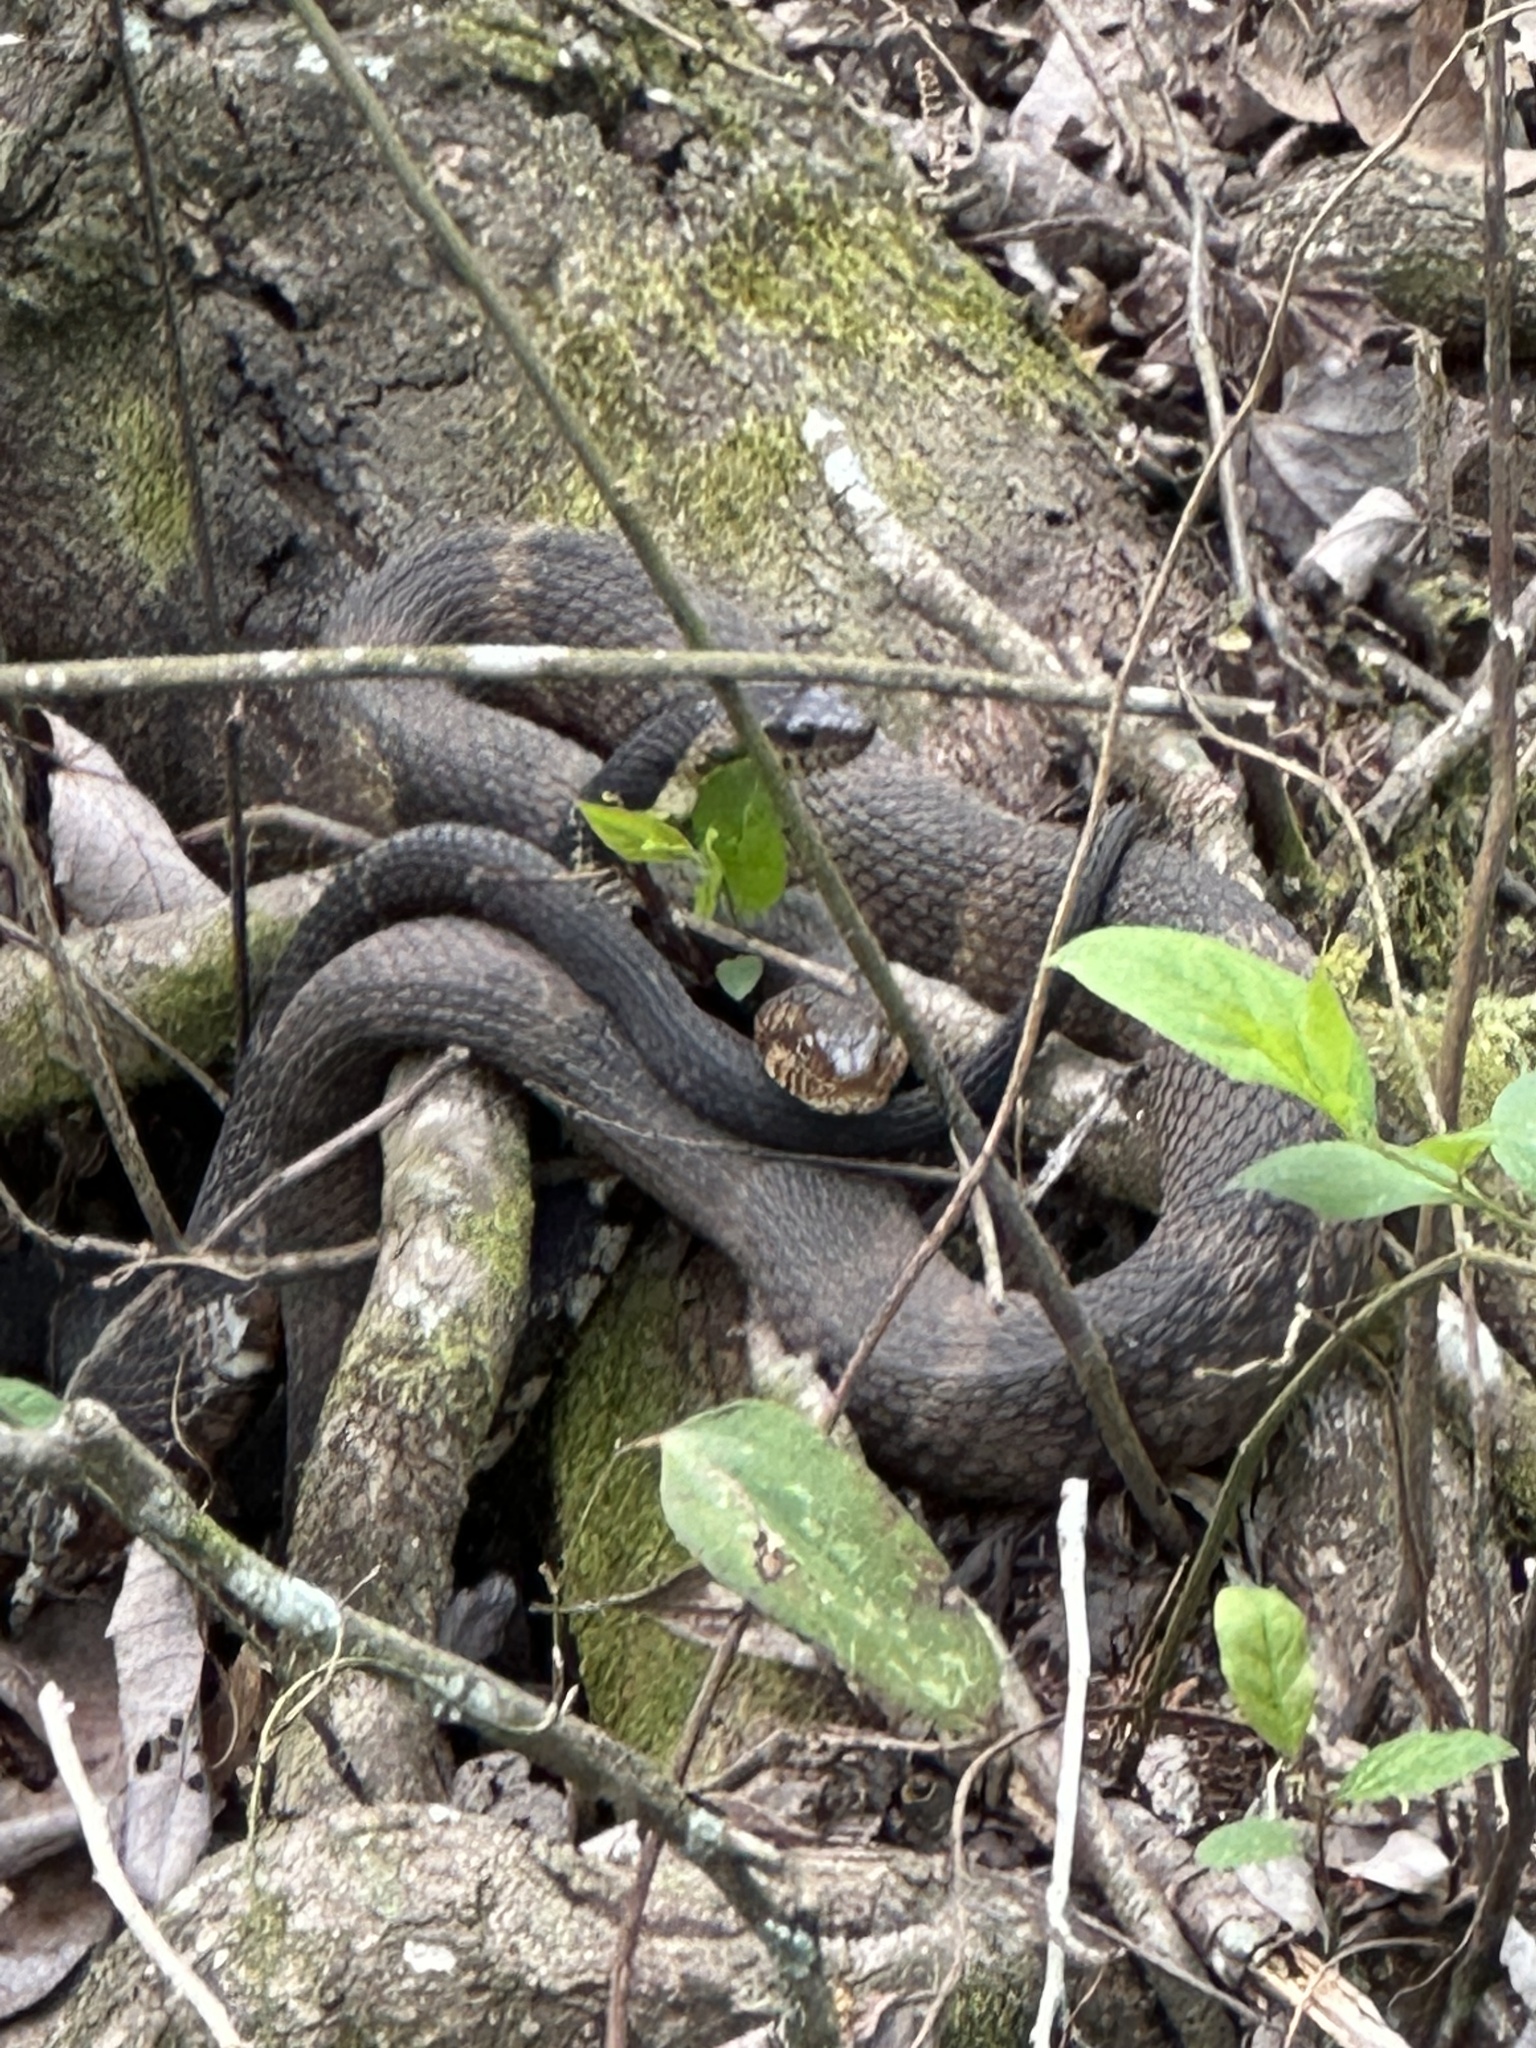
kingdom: Animalia
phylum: Chordata
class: Squamata
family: Colubridae
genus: Nerodia
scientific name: Nerodia fasciata
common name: Southern water snake
